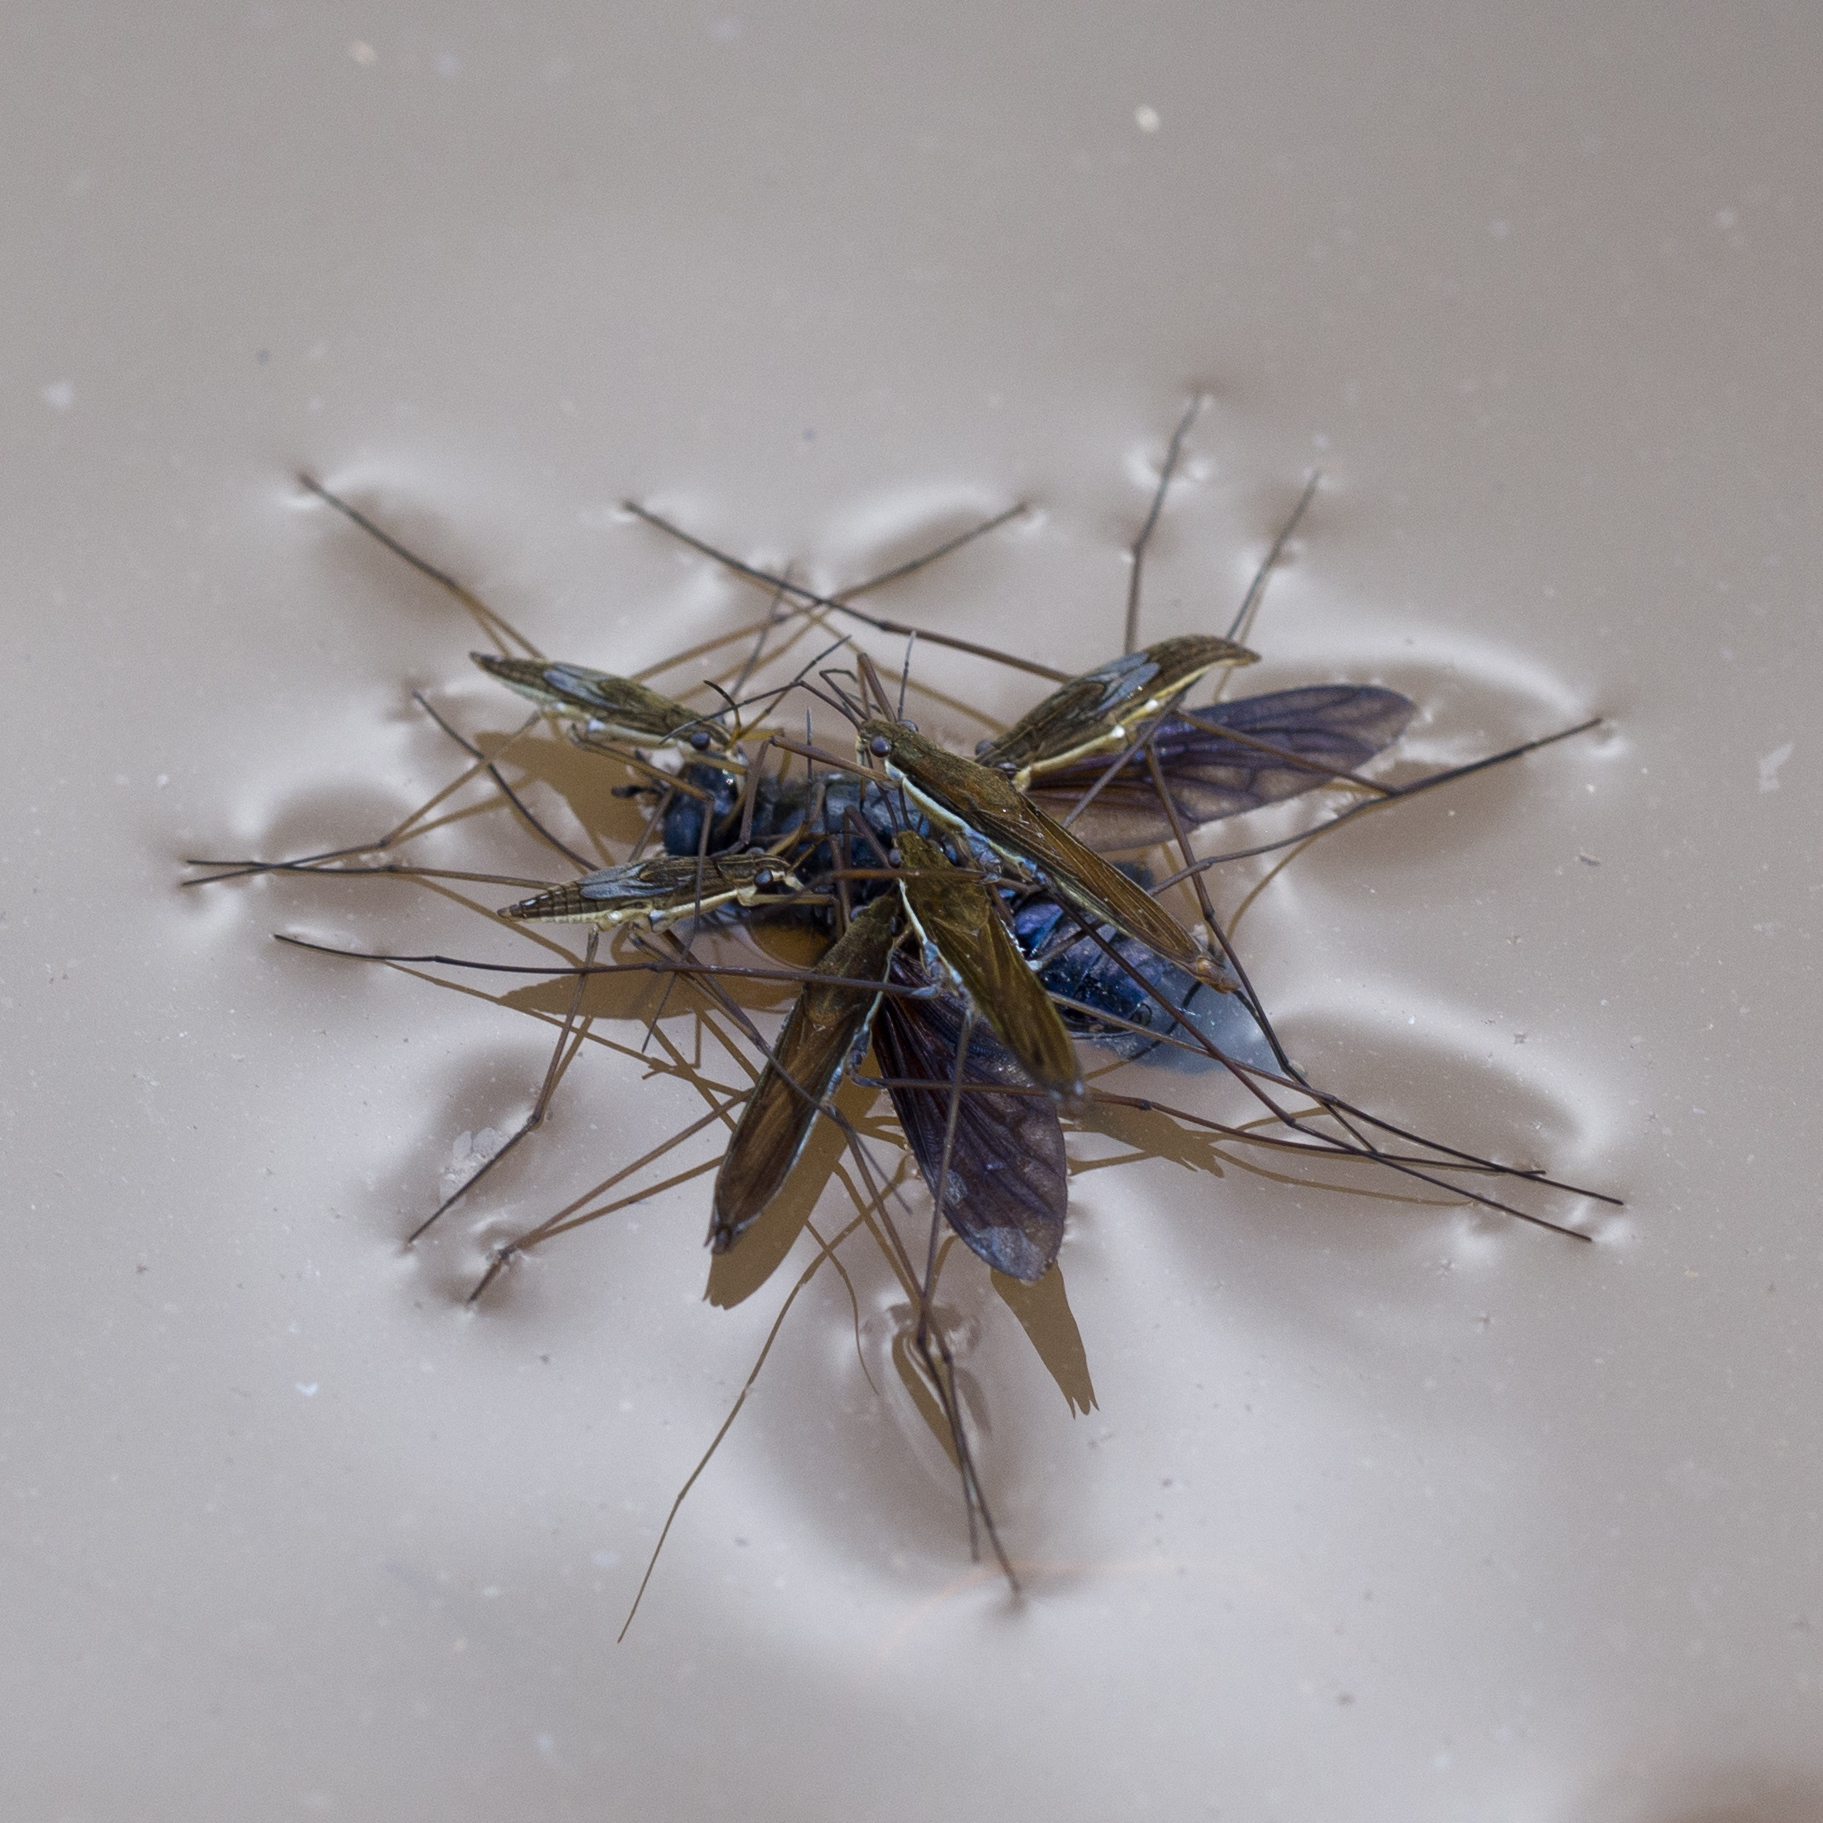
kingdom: Animalia
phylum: Arthropoda
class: Insecta
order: Hemiptera
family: Gerridae
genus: Limnoporus
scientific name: Limnoporus notabilis
